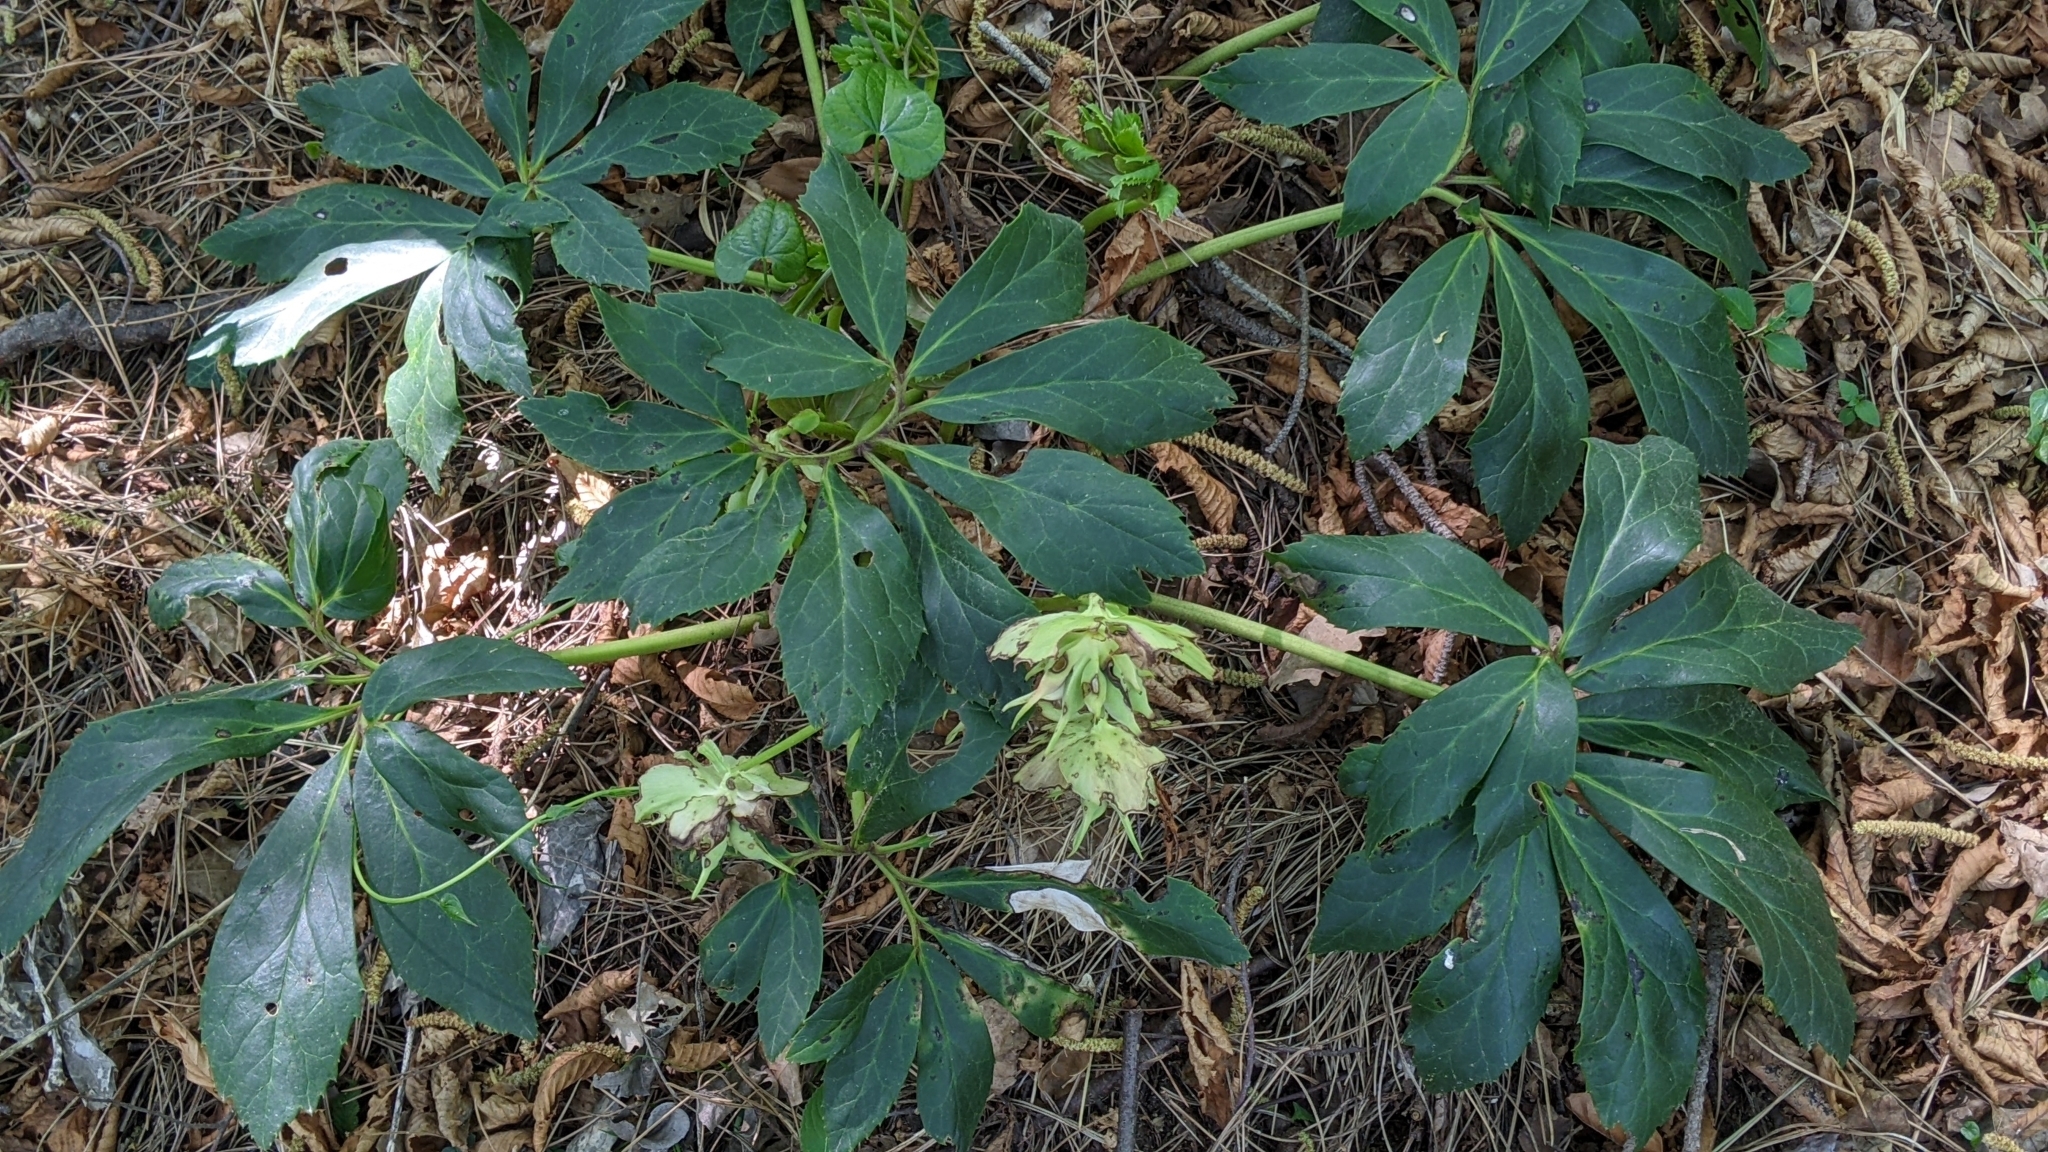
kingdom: Plantae
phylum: Tracheophyta
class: Magnoliopsida
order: Ranunculales
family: Ranunculaceae
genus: Helleborus
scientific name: Helleborus niger
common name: Black hellebore
